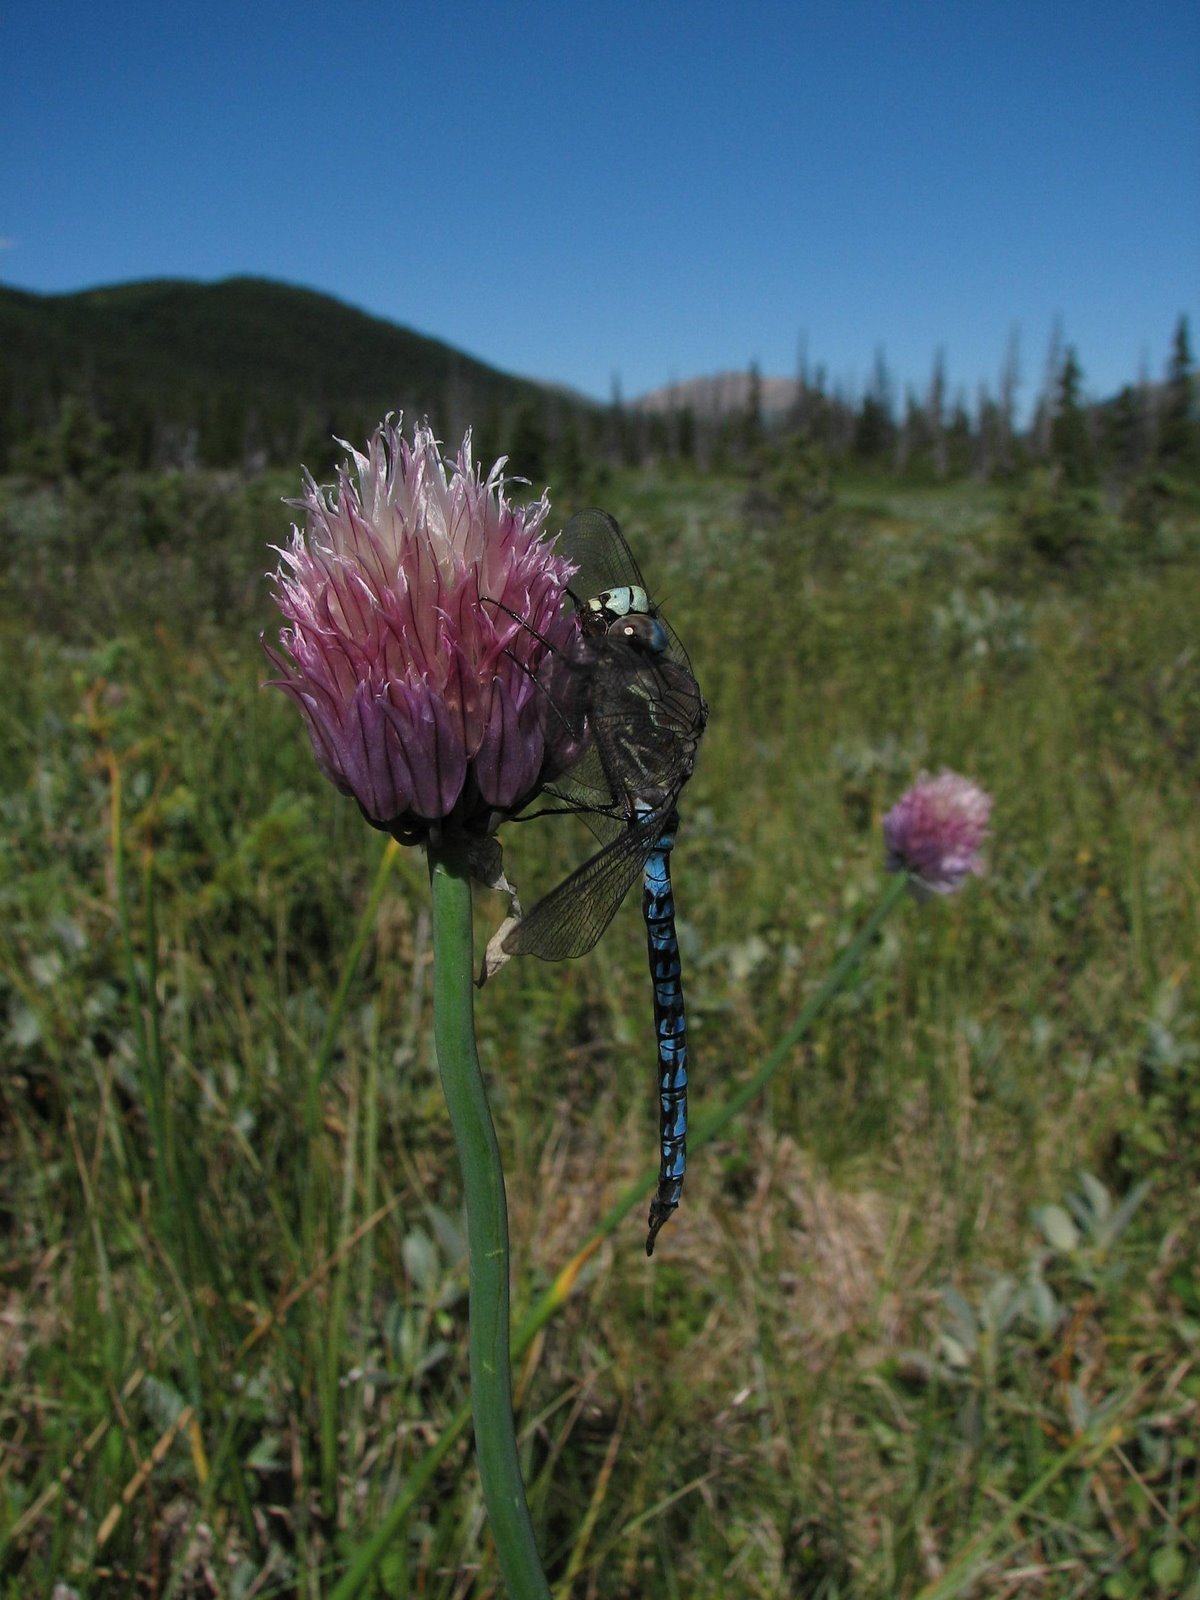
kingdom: Animalia
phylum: Arthropoda
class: Insecta
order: Odonata
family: Aeshnidae
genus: Aeshna
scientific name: Aeshna septentrionalis
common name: Azure darner
